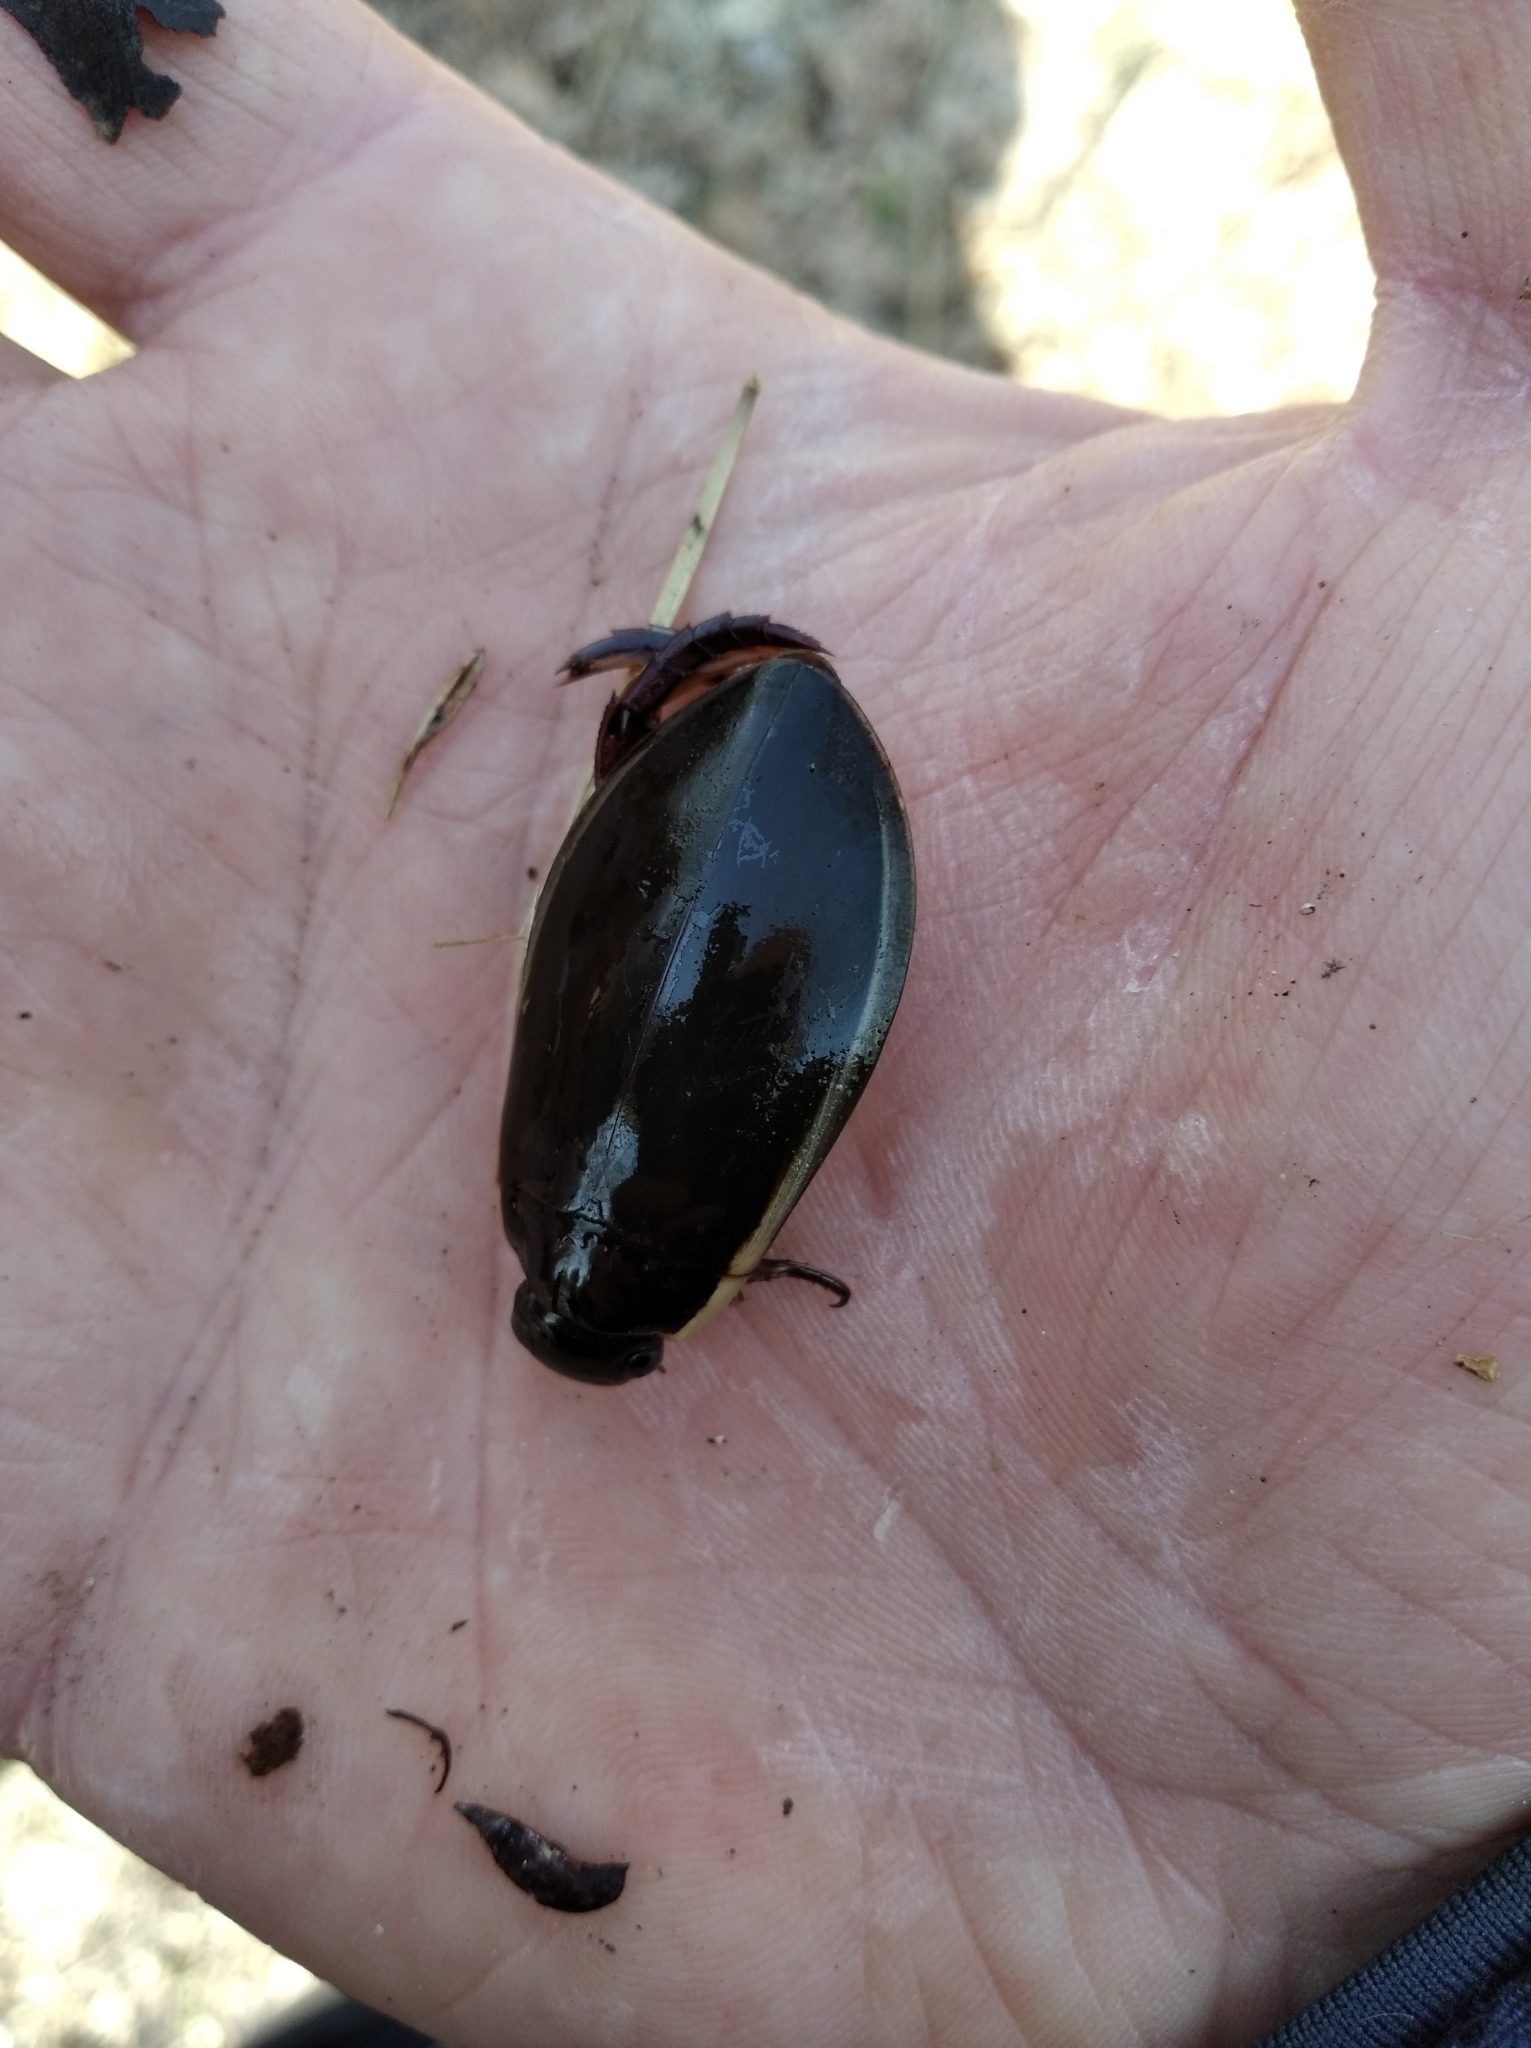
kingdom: Animalia
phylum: Arthropoda
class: Insecta
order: Coleoptera
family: Dytiscidae
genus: Cybister
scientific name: Cybister lateralimarginalis
